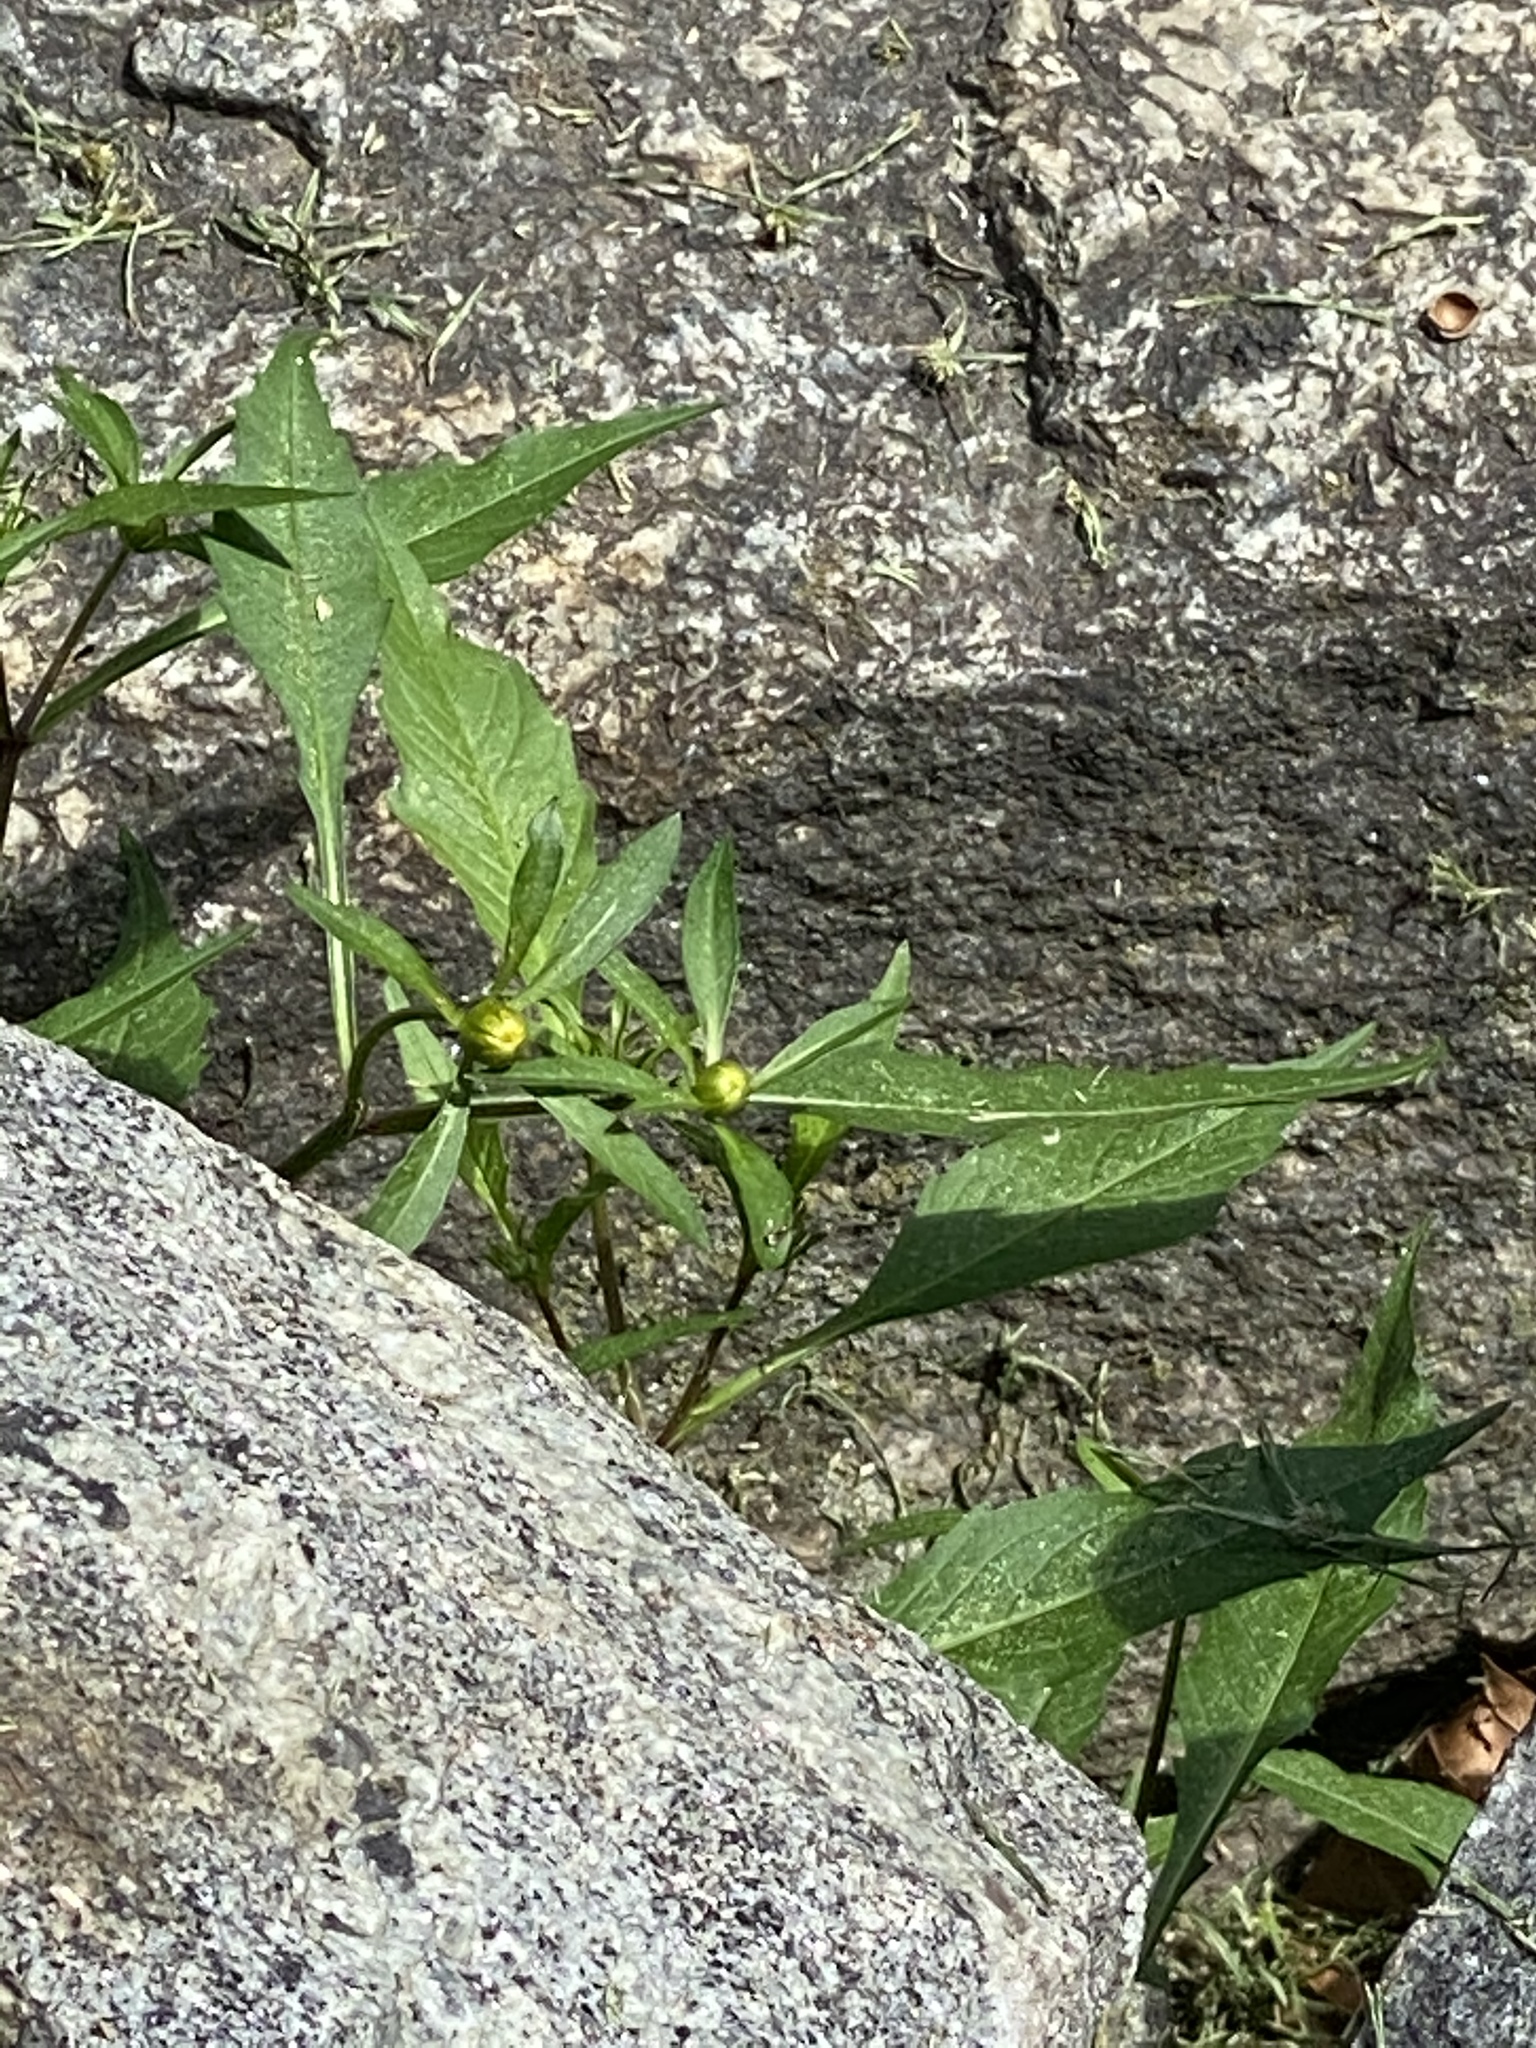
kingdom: Plantae
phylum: Tracheophyta
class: Magnoliopsida
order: Asterales
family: Asteraceae
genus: Bidens
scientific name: Bidens frondosa
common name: Beggarticks
